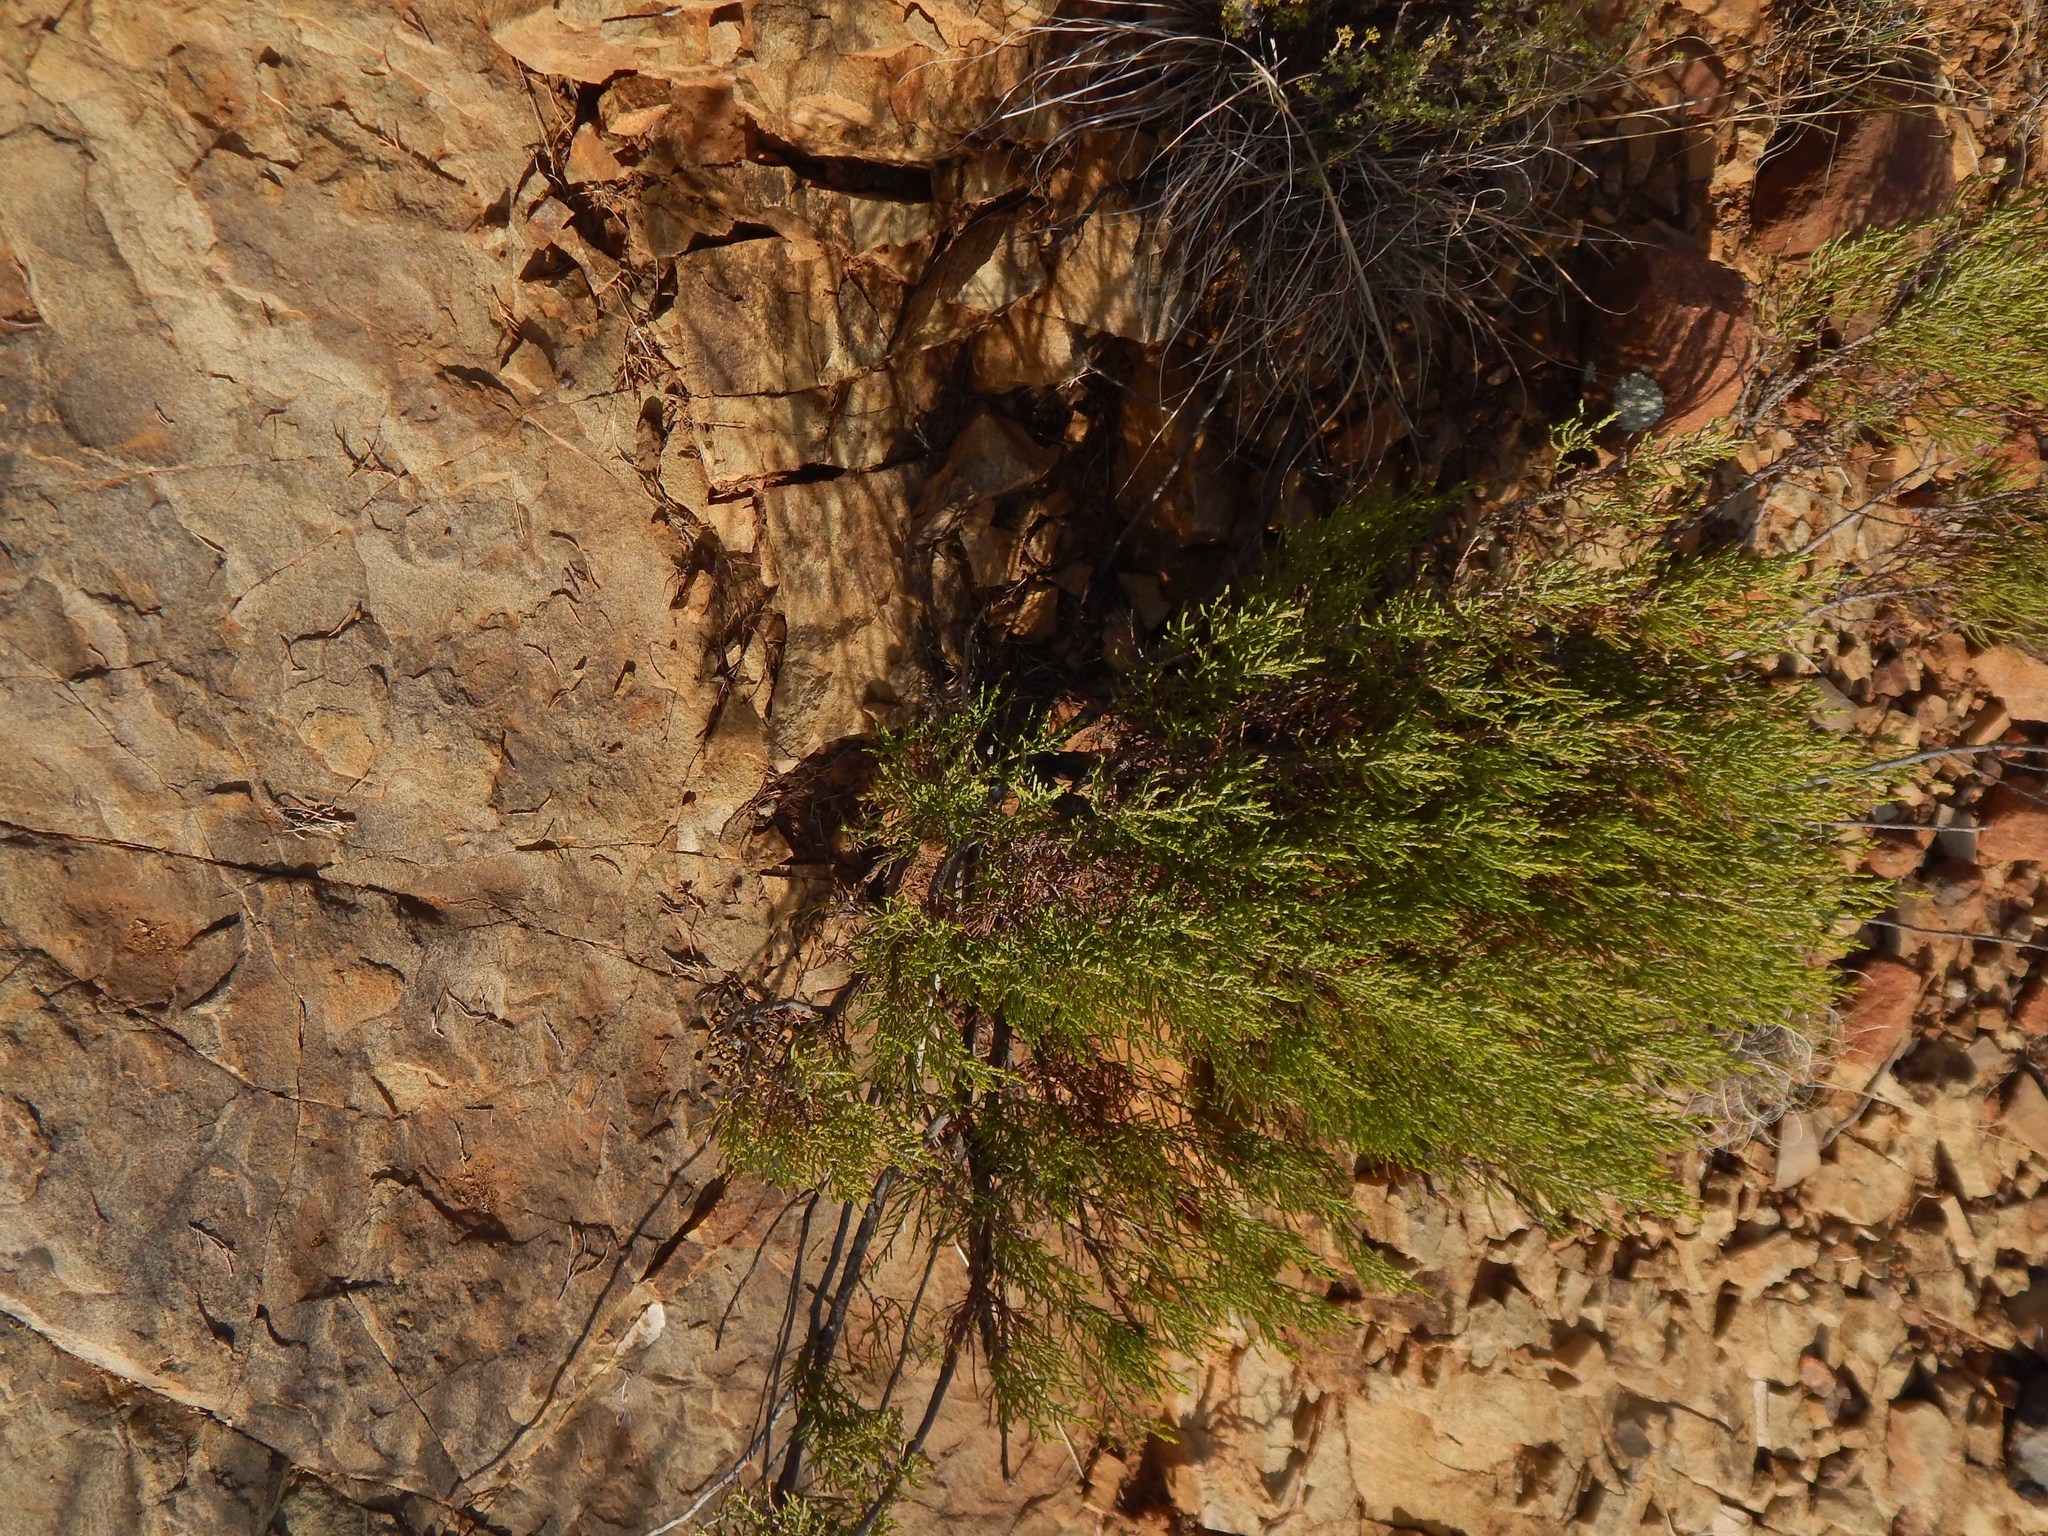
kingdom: Plantae
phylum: Tracheophyta
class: Magnoliopsida
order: Asterales
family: Asteraceae
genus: Dicerothamnus
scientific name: Dicerothamnus rhinocerotis
